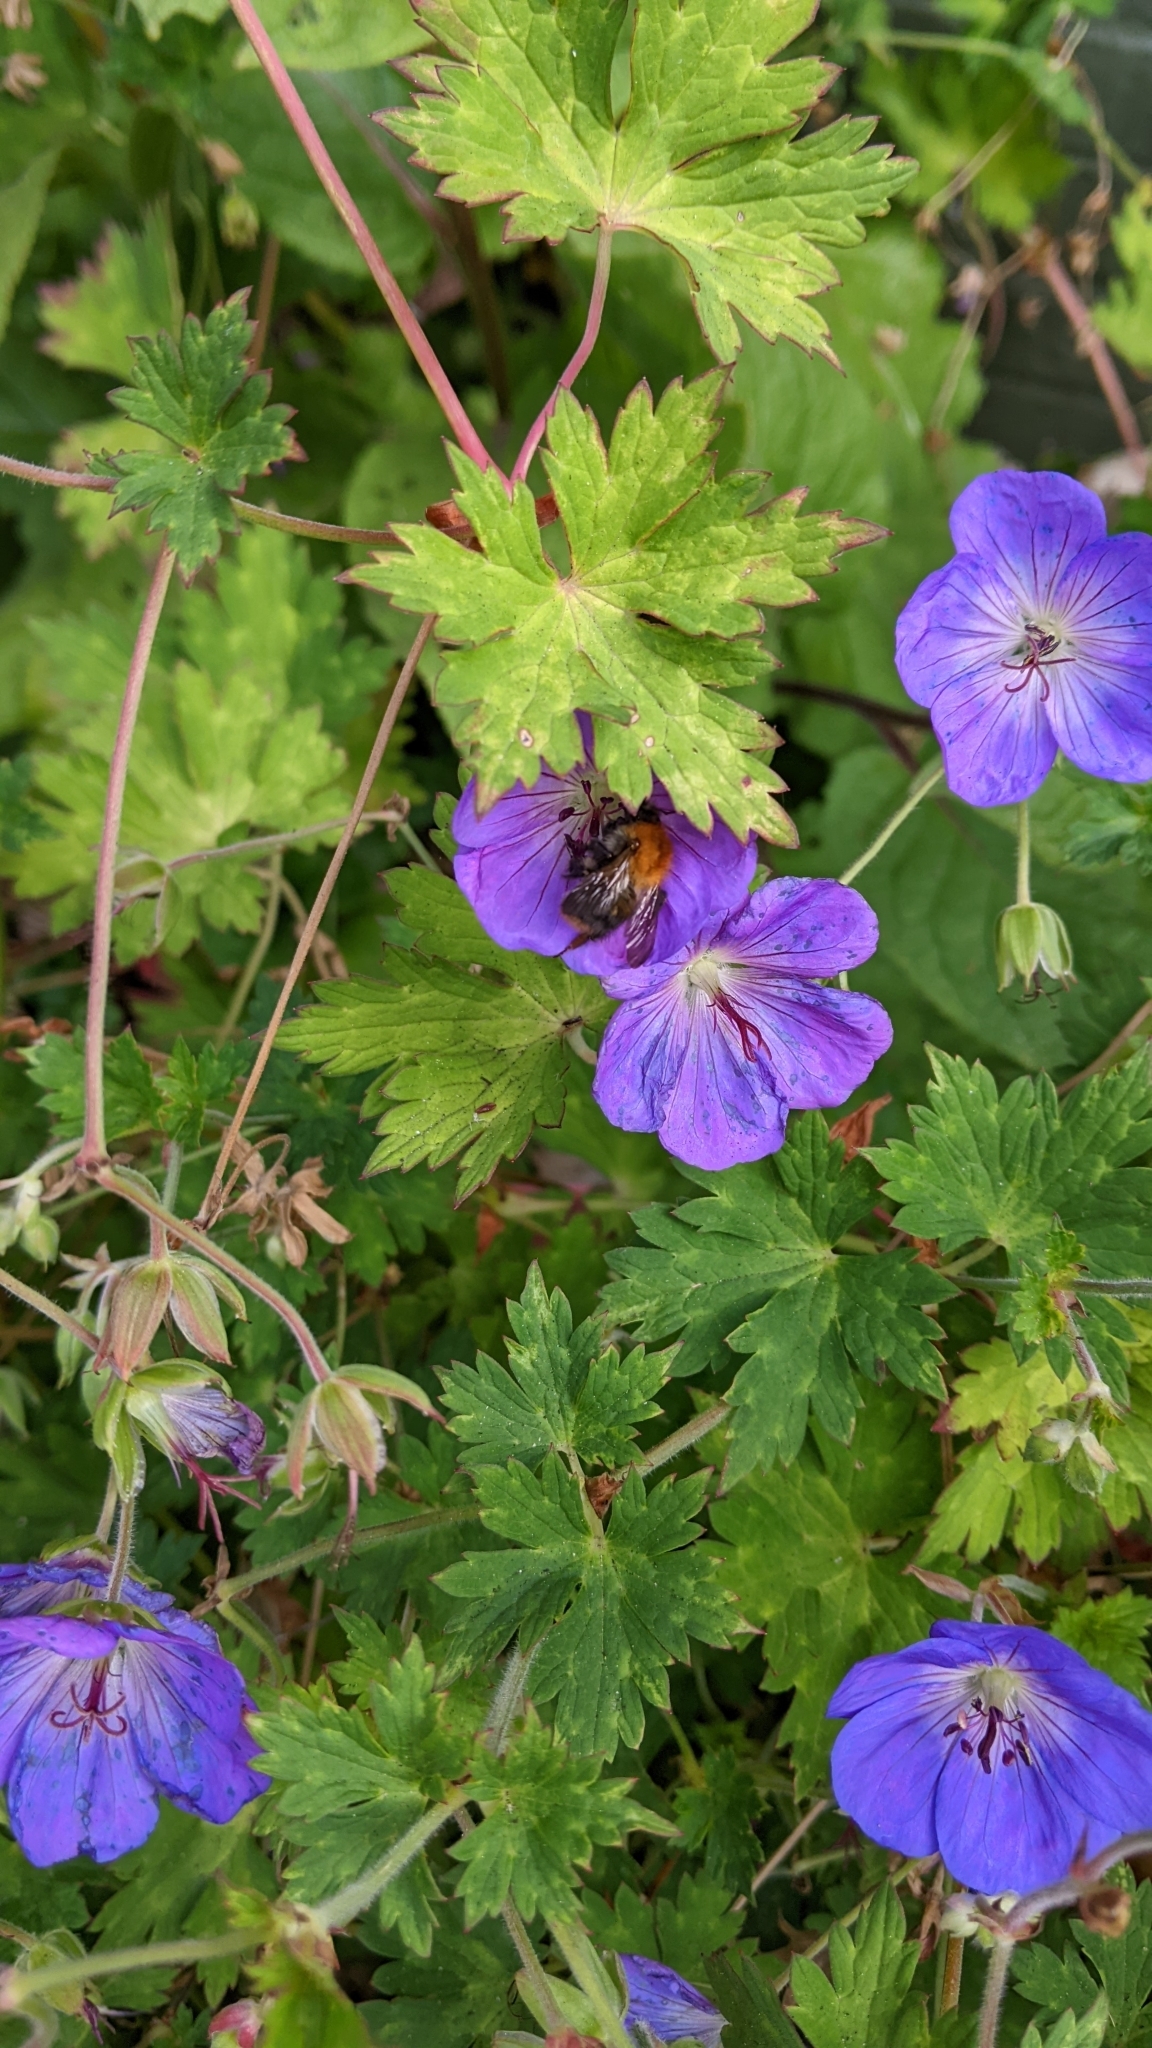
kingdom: Animalia
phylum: Arthropoda
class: Insecta
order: Hymenoptera
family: Apidae
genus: Bombus
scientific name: Bombus pascuorum
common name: Common carder bee
